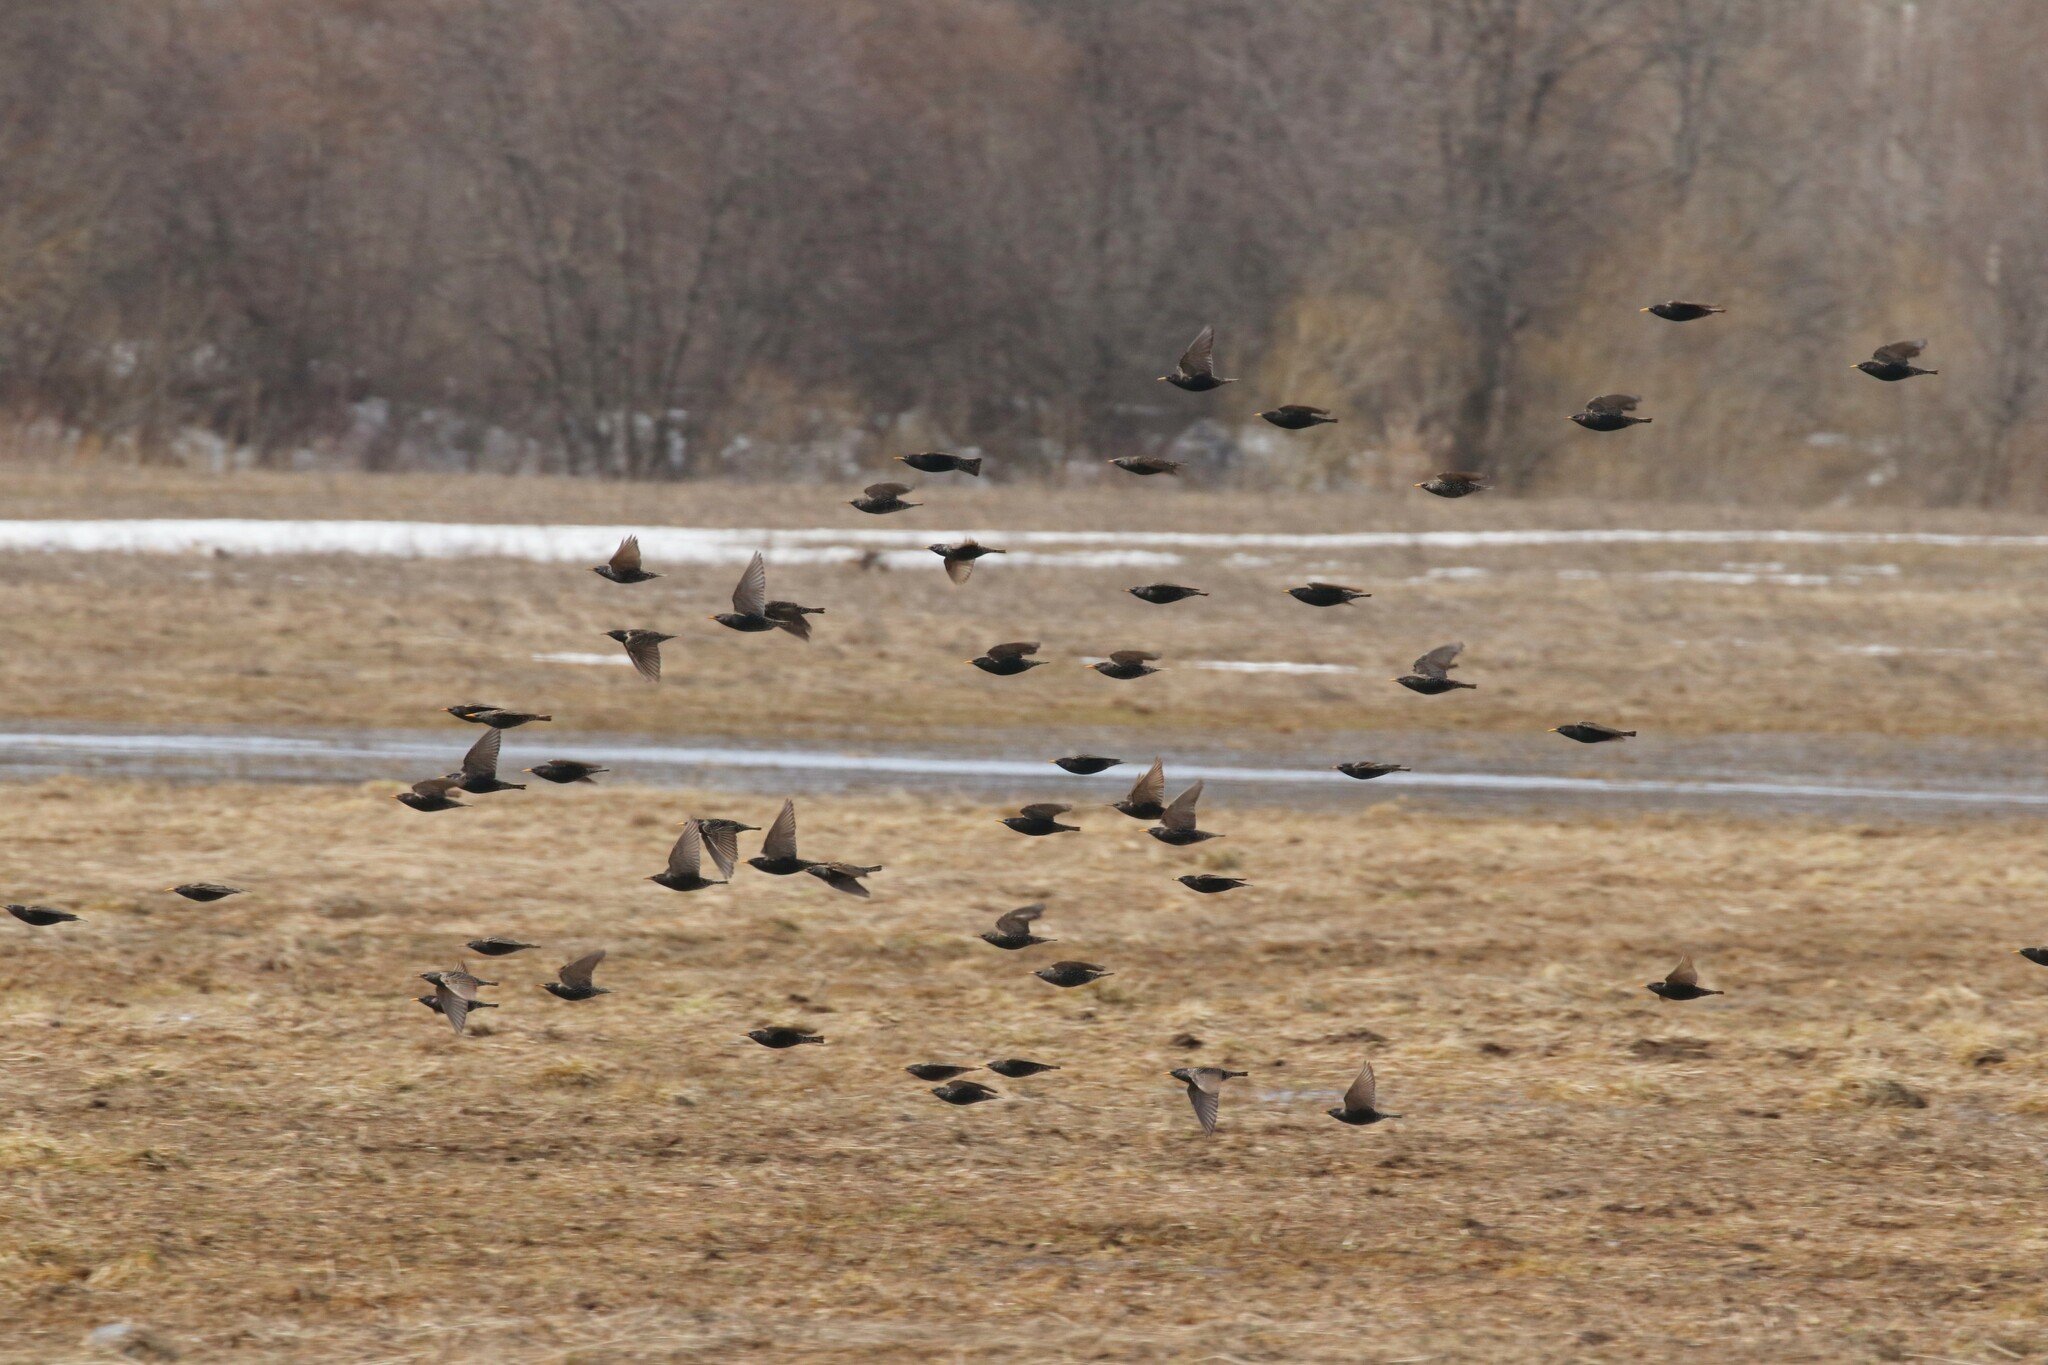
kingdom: Animalia
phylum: Chordata
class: Aves
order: Passeriformes
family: Sturnidae
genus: Sturnus
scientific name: Sturnus vulgaris
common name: Common starling
